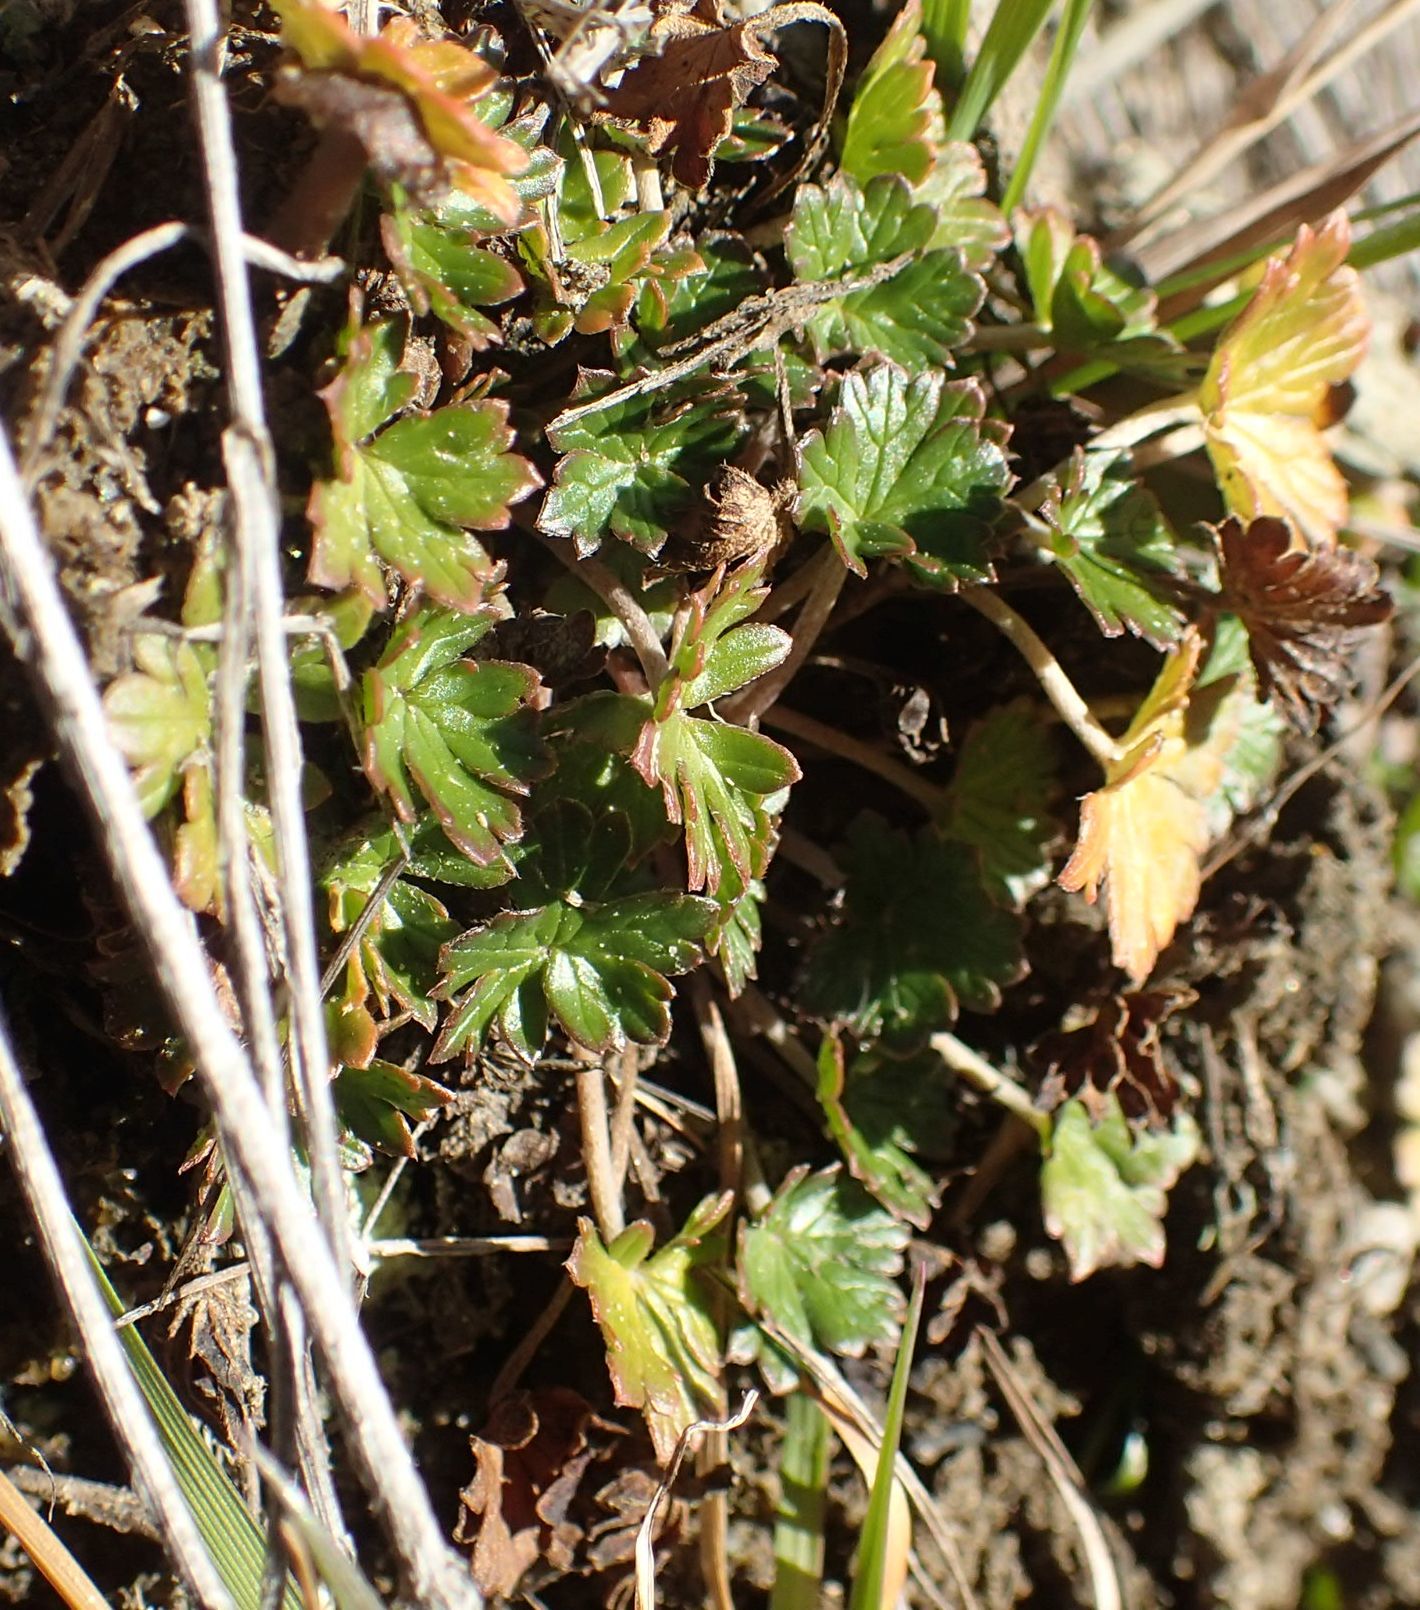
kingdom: Plantae
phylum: Tracheophyta
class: Magnoliopsida
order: Geraniales
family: Geraniaceae
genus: Geranium
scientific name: Geranium brevicaule
